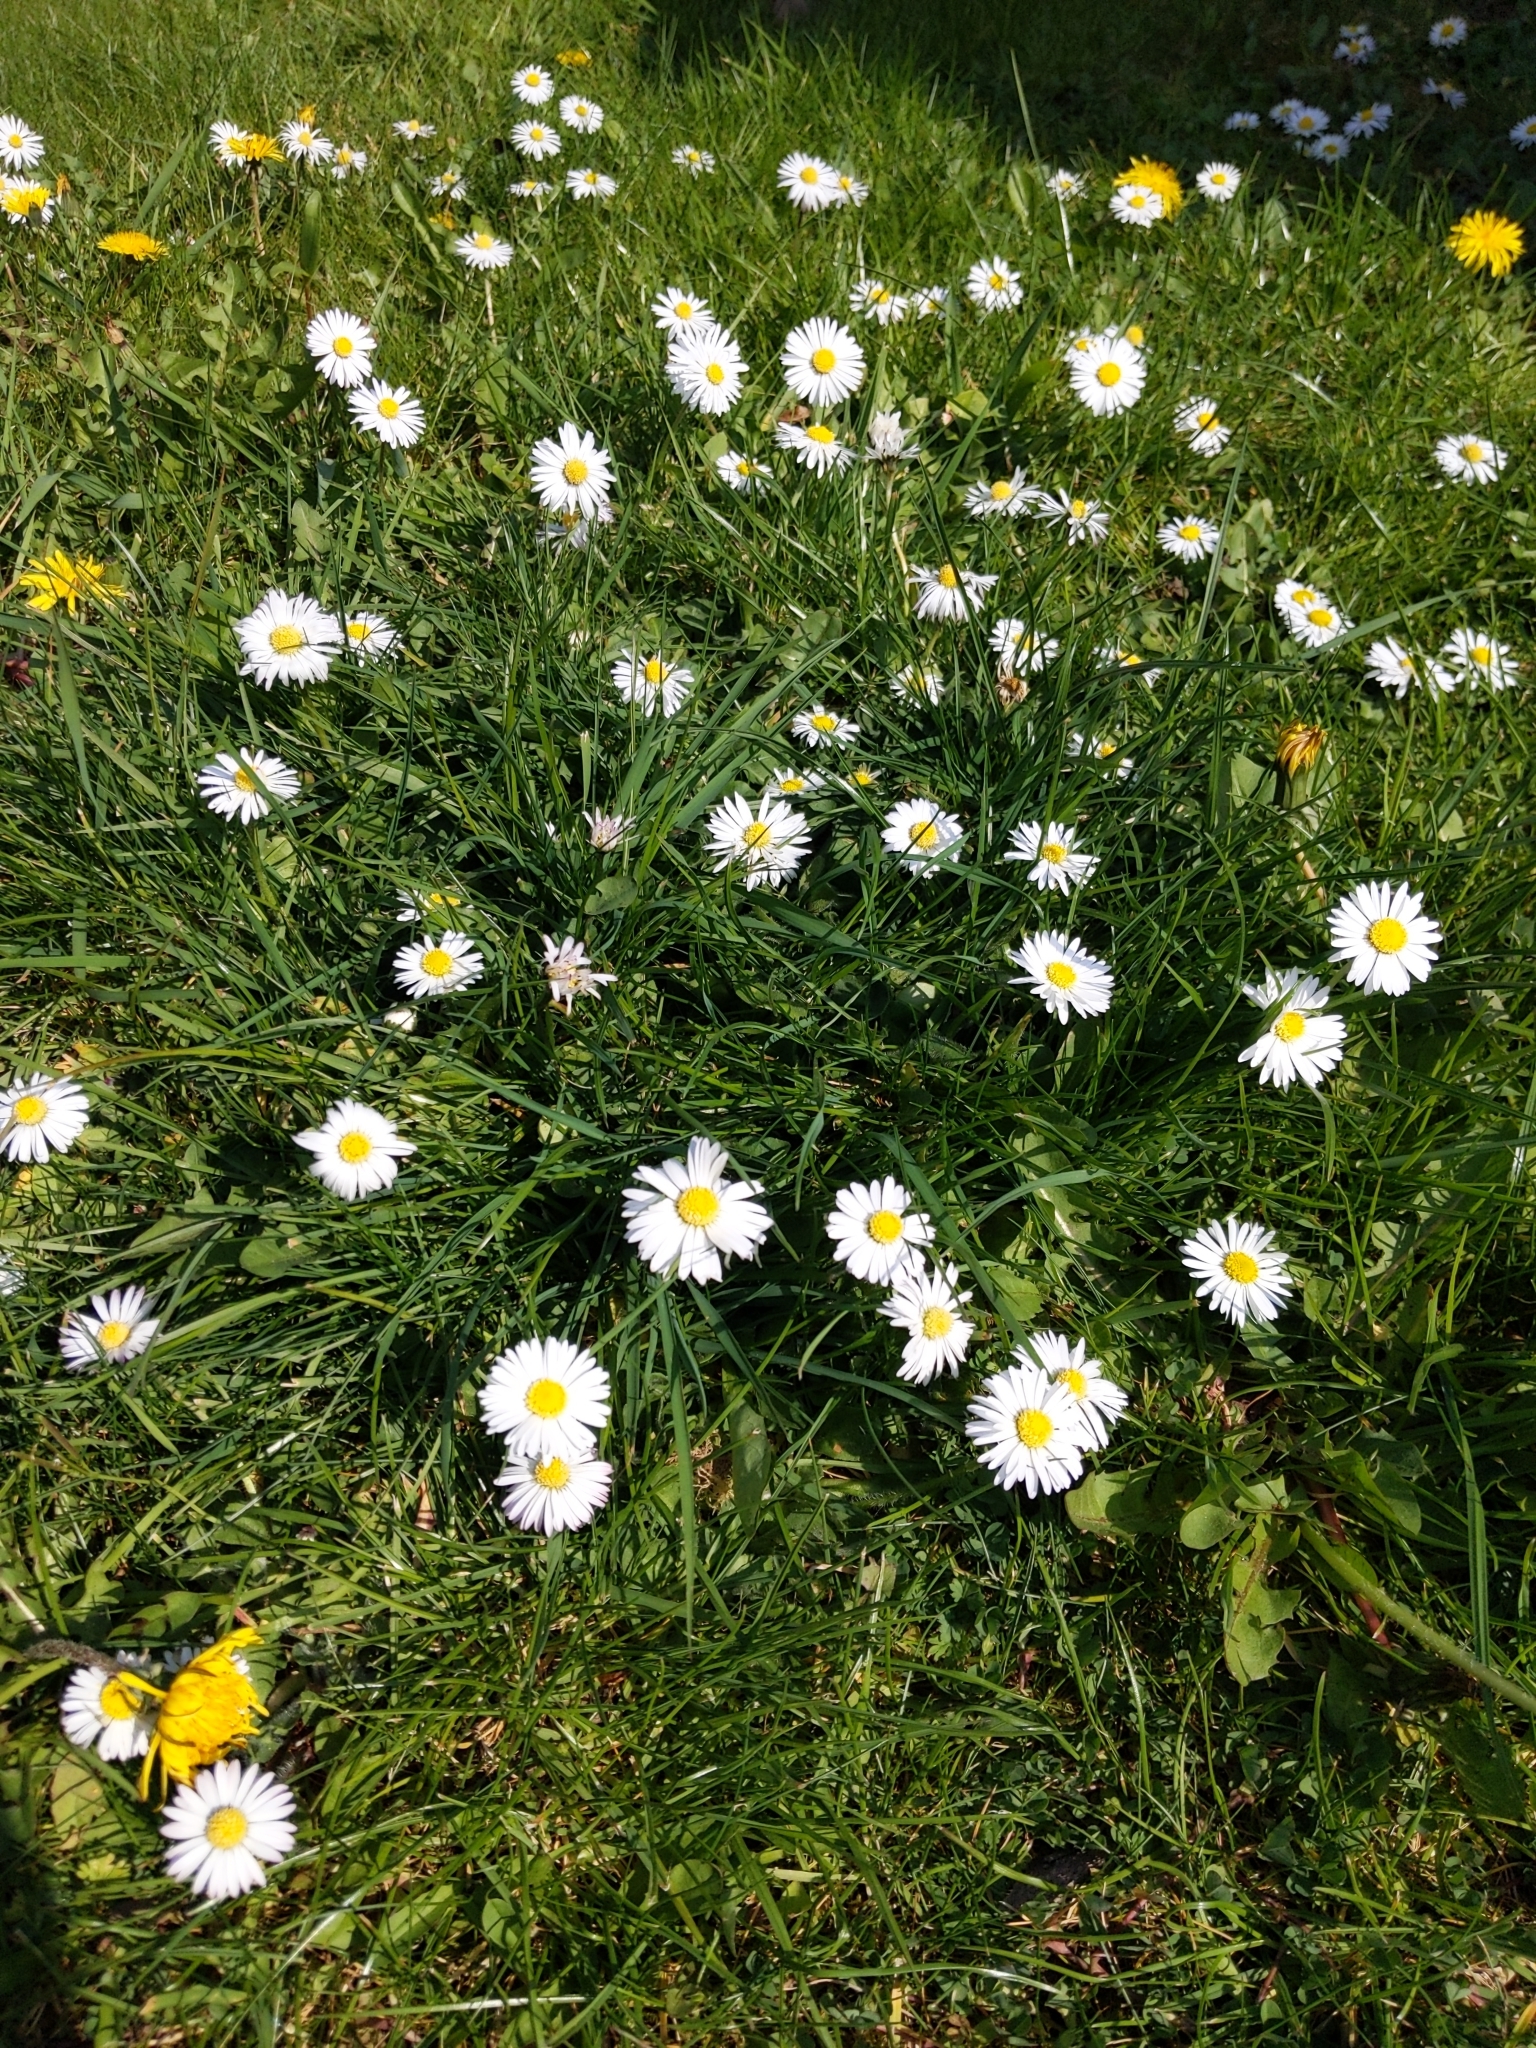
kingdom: Plantae
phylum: Tracheophyta
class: Magnoliopsida
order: Asterales
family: Asteraceae
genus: Bellis
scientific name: Bellis perennis
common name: Lawndaisy
